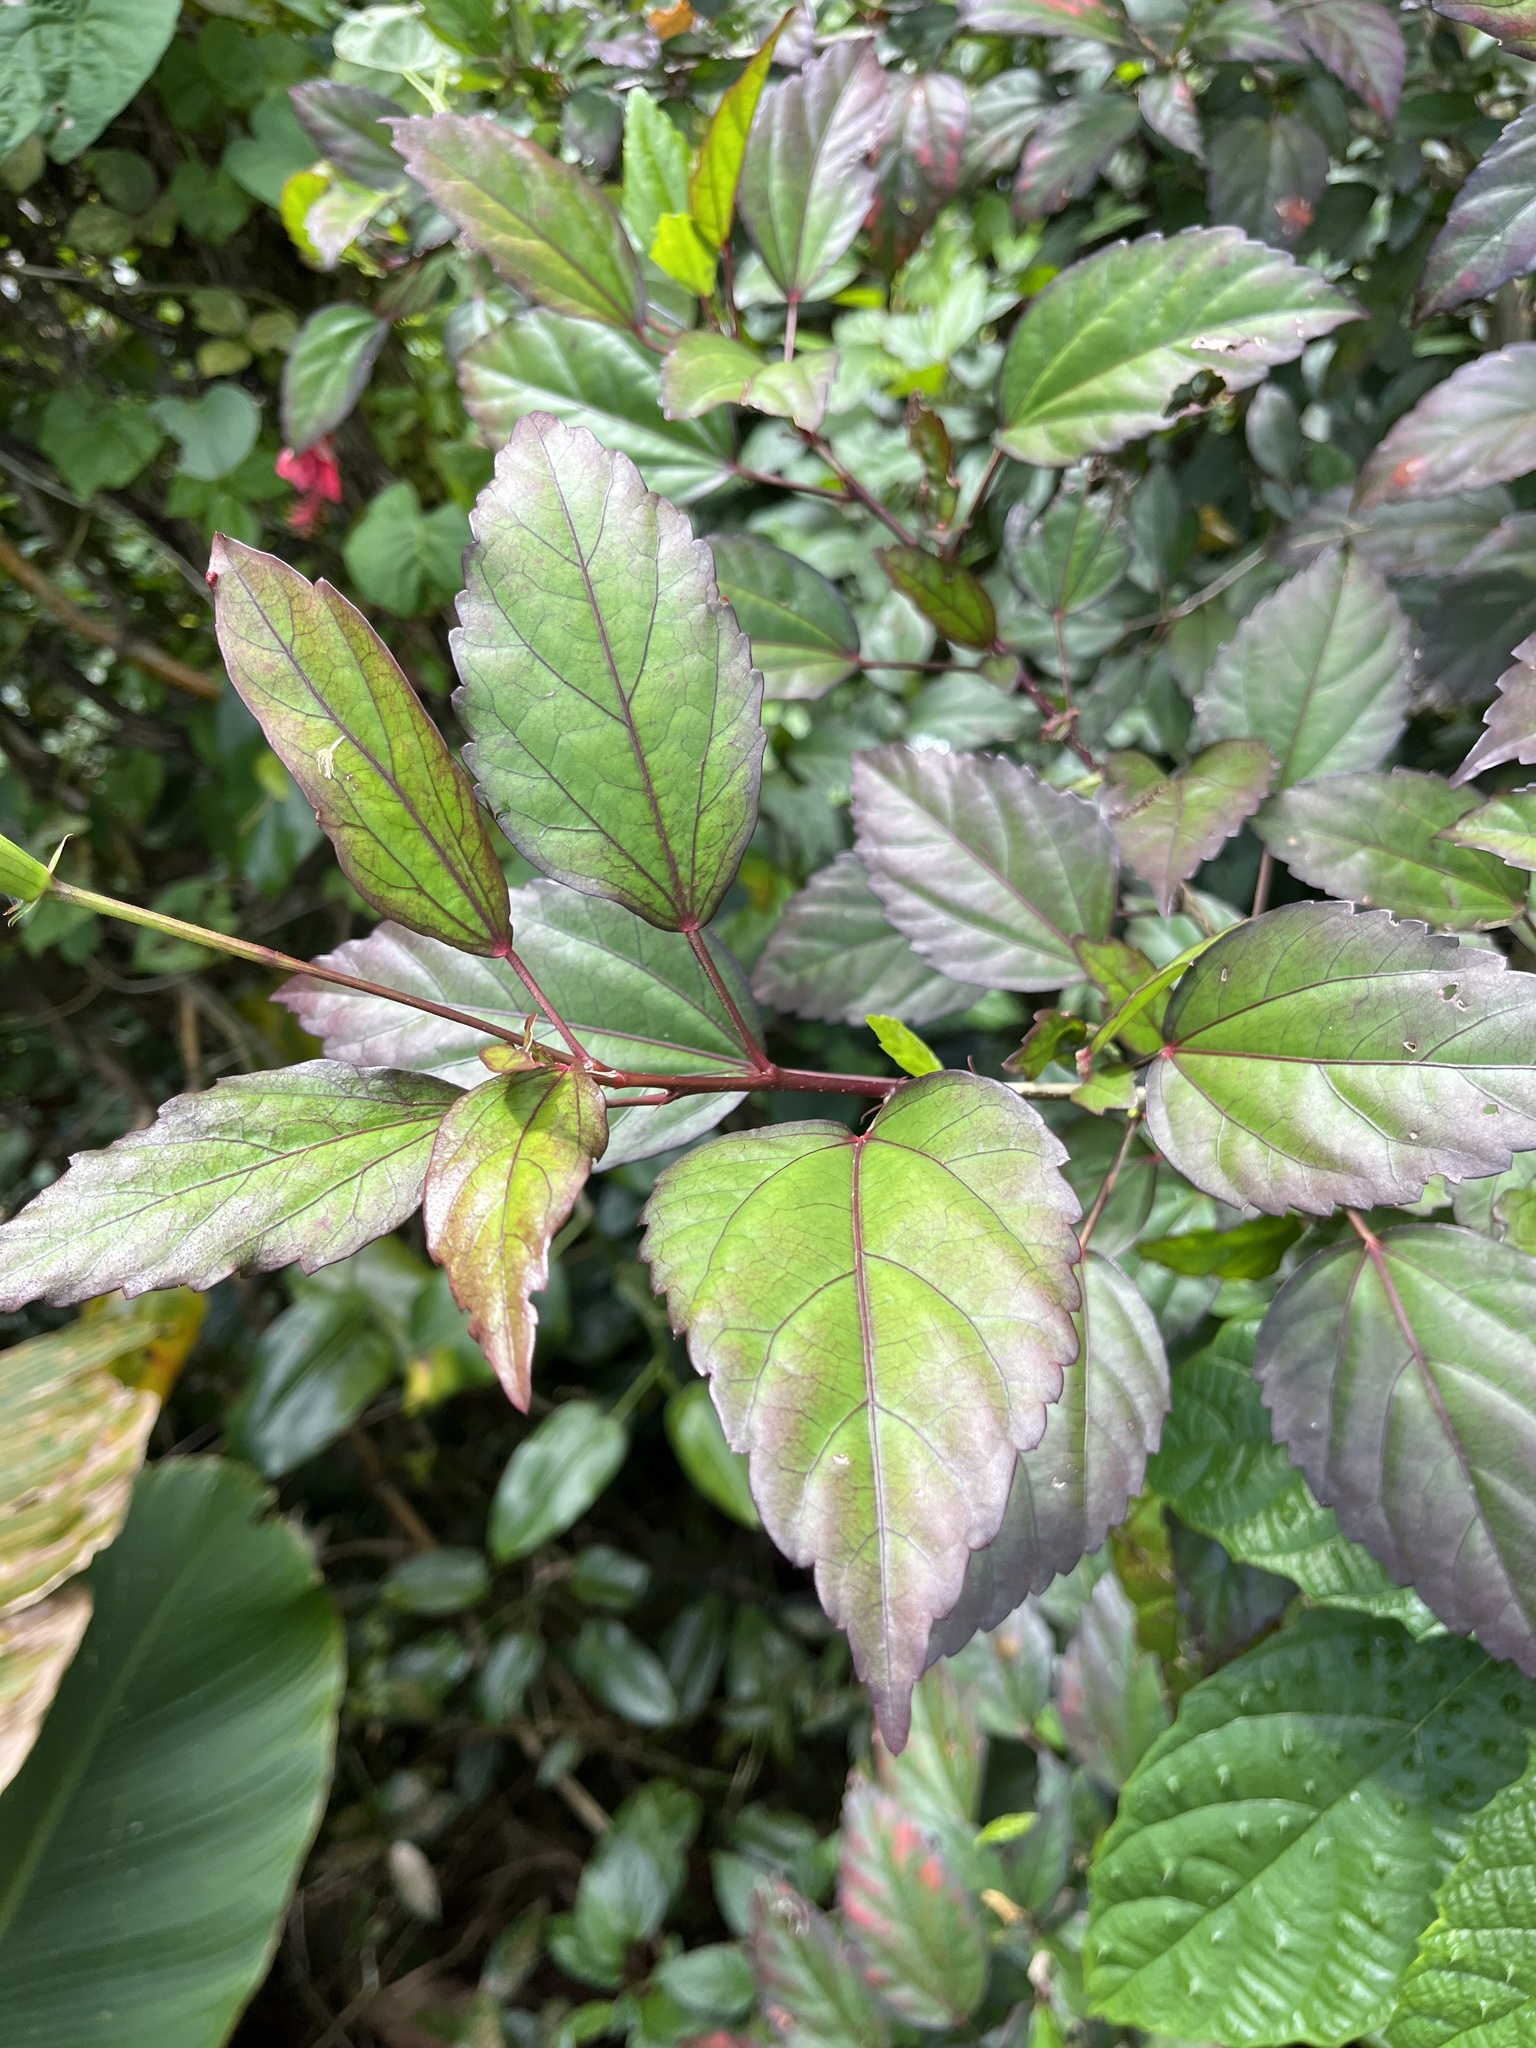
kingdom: Plantae
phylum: Tracheophyta
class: Magnoliopsida
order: Malvales
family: Malvaceae
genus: Hibiscus
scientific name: Hibiscus archeri
